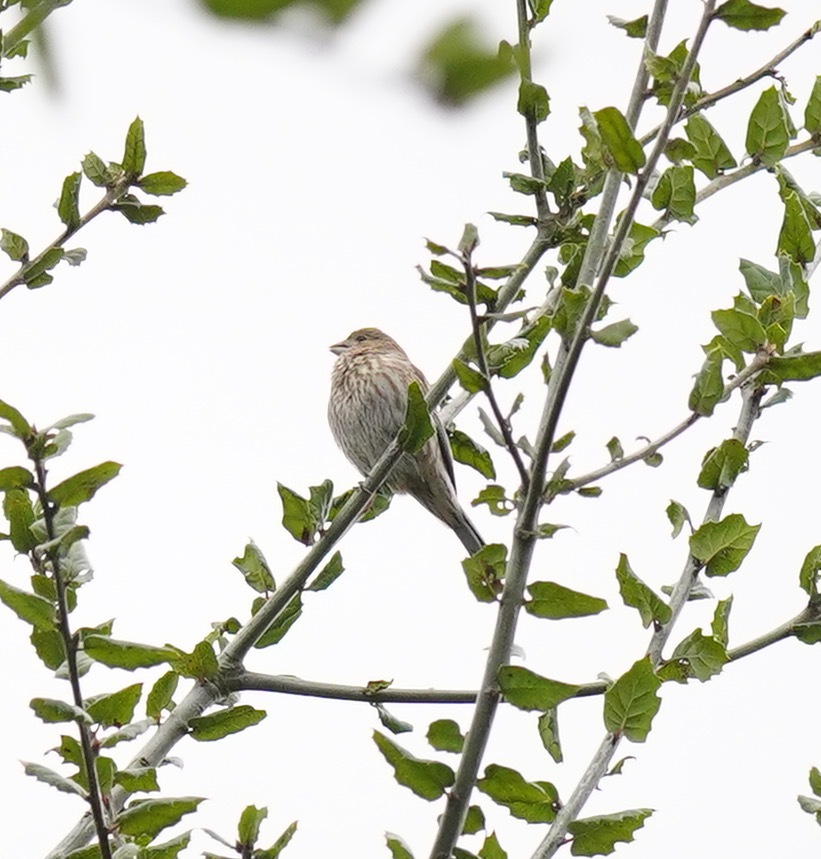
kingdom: Animalia
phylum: Chordata
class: Aves
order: Passeriformes
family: Fringillidae
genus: Haemorhous
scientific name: Haemorhous mexicanus
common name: House finch
